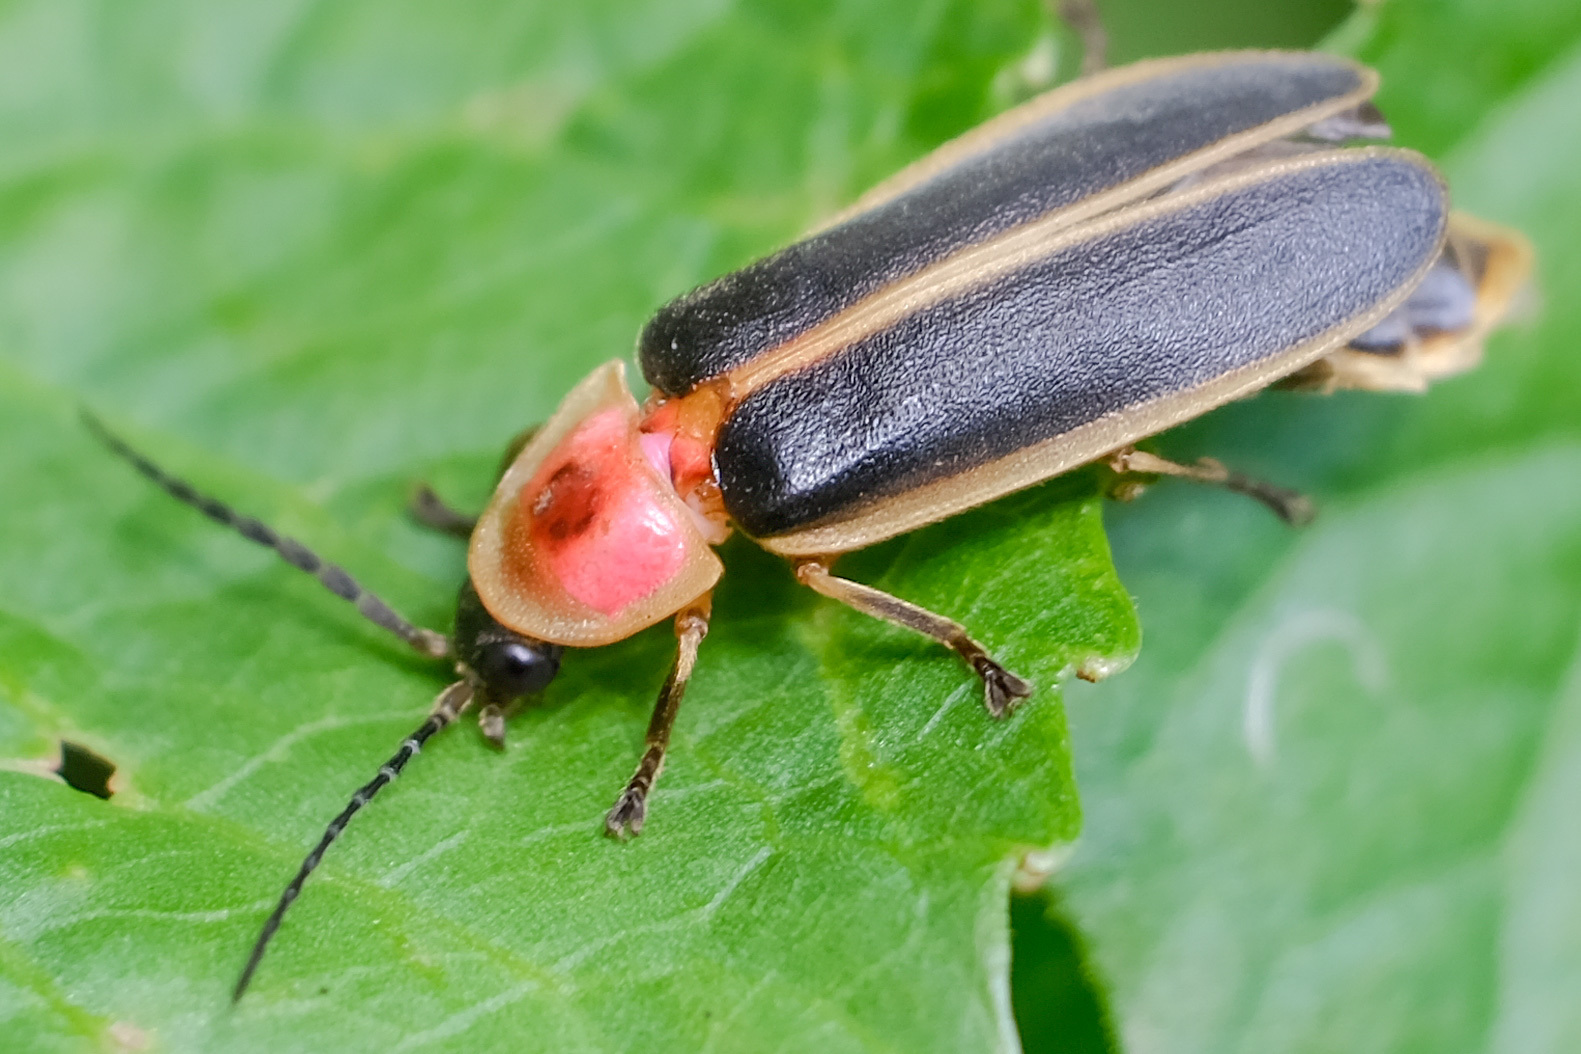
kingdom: Animalia
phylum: Arthropoda
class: Insecta
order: Coleoptera
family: Lampyridae
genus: Photinus
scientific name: Photinus pyralis
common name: Big dipper firefly
